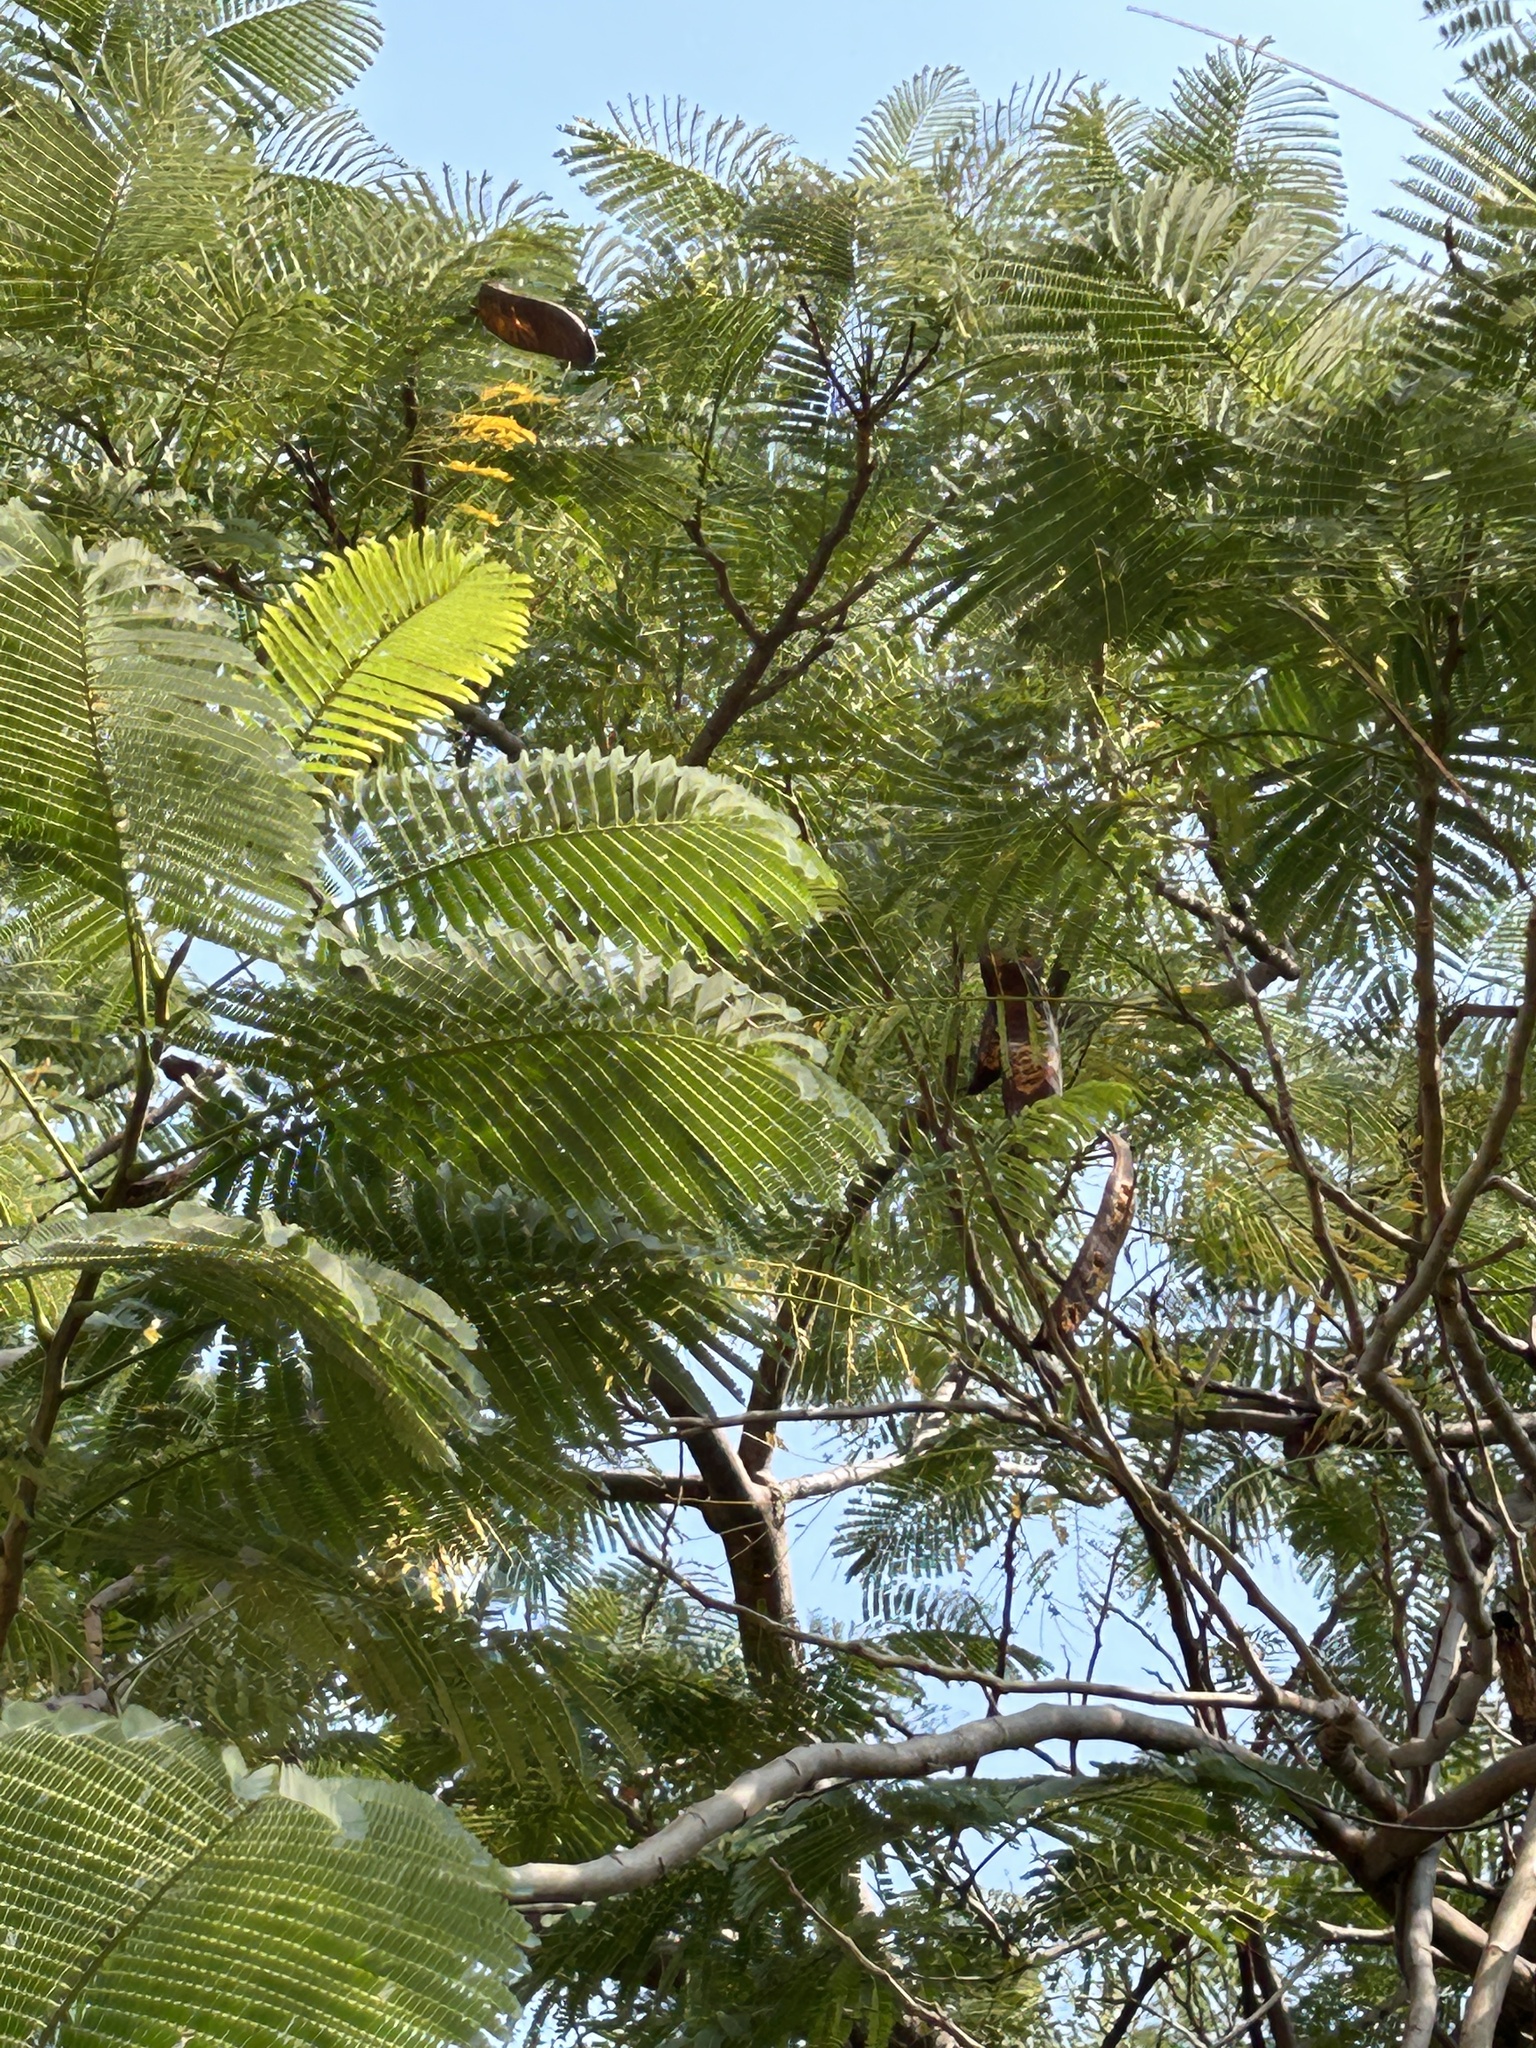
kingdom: Plantae
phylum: Tracheophyta
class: Magnoliopsida
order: Fabales
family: Fabaceae
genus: Delonix
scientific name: Delonix regia
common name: Royal poinciana
